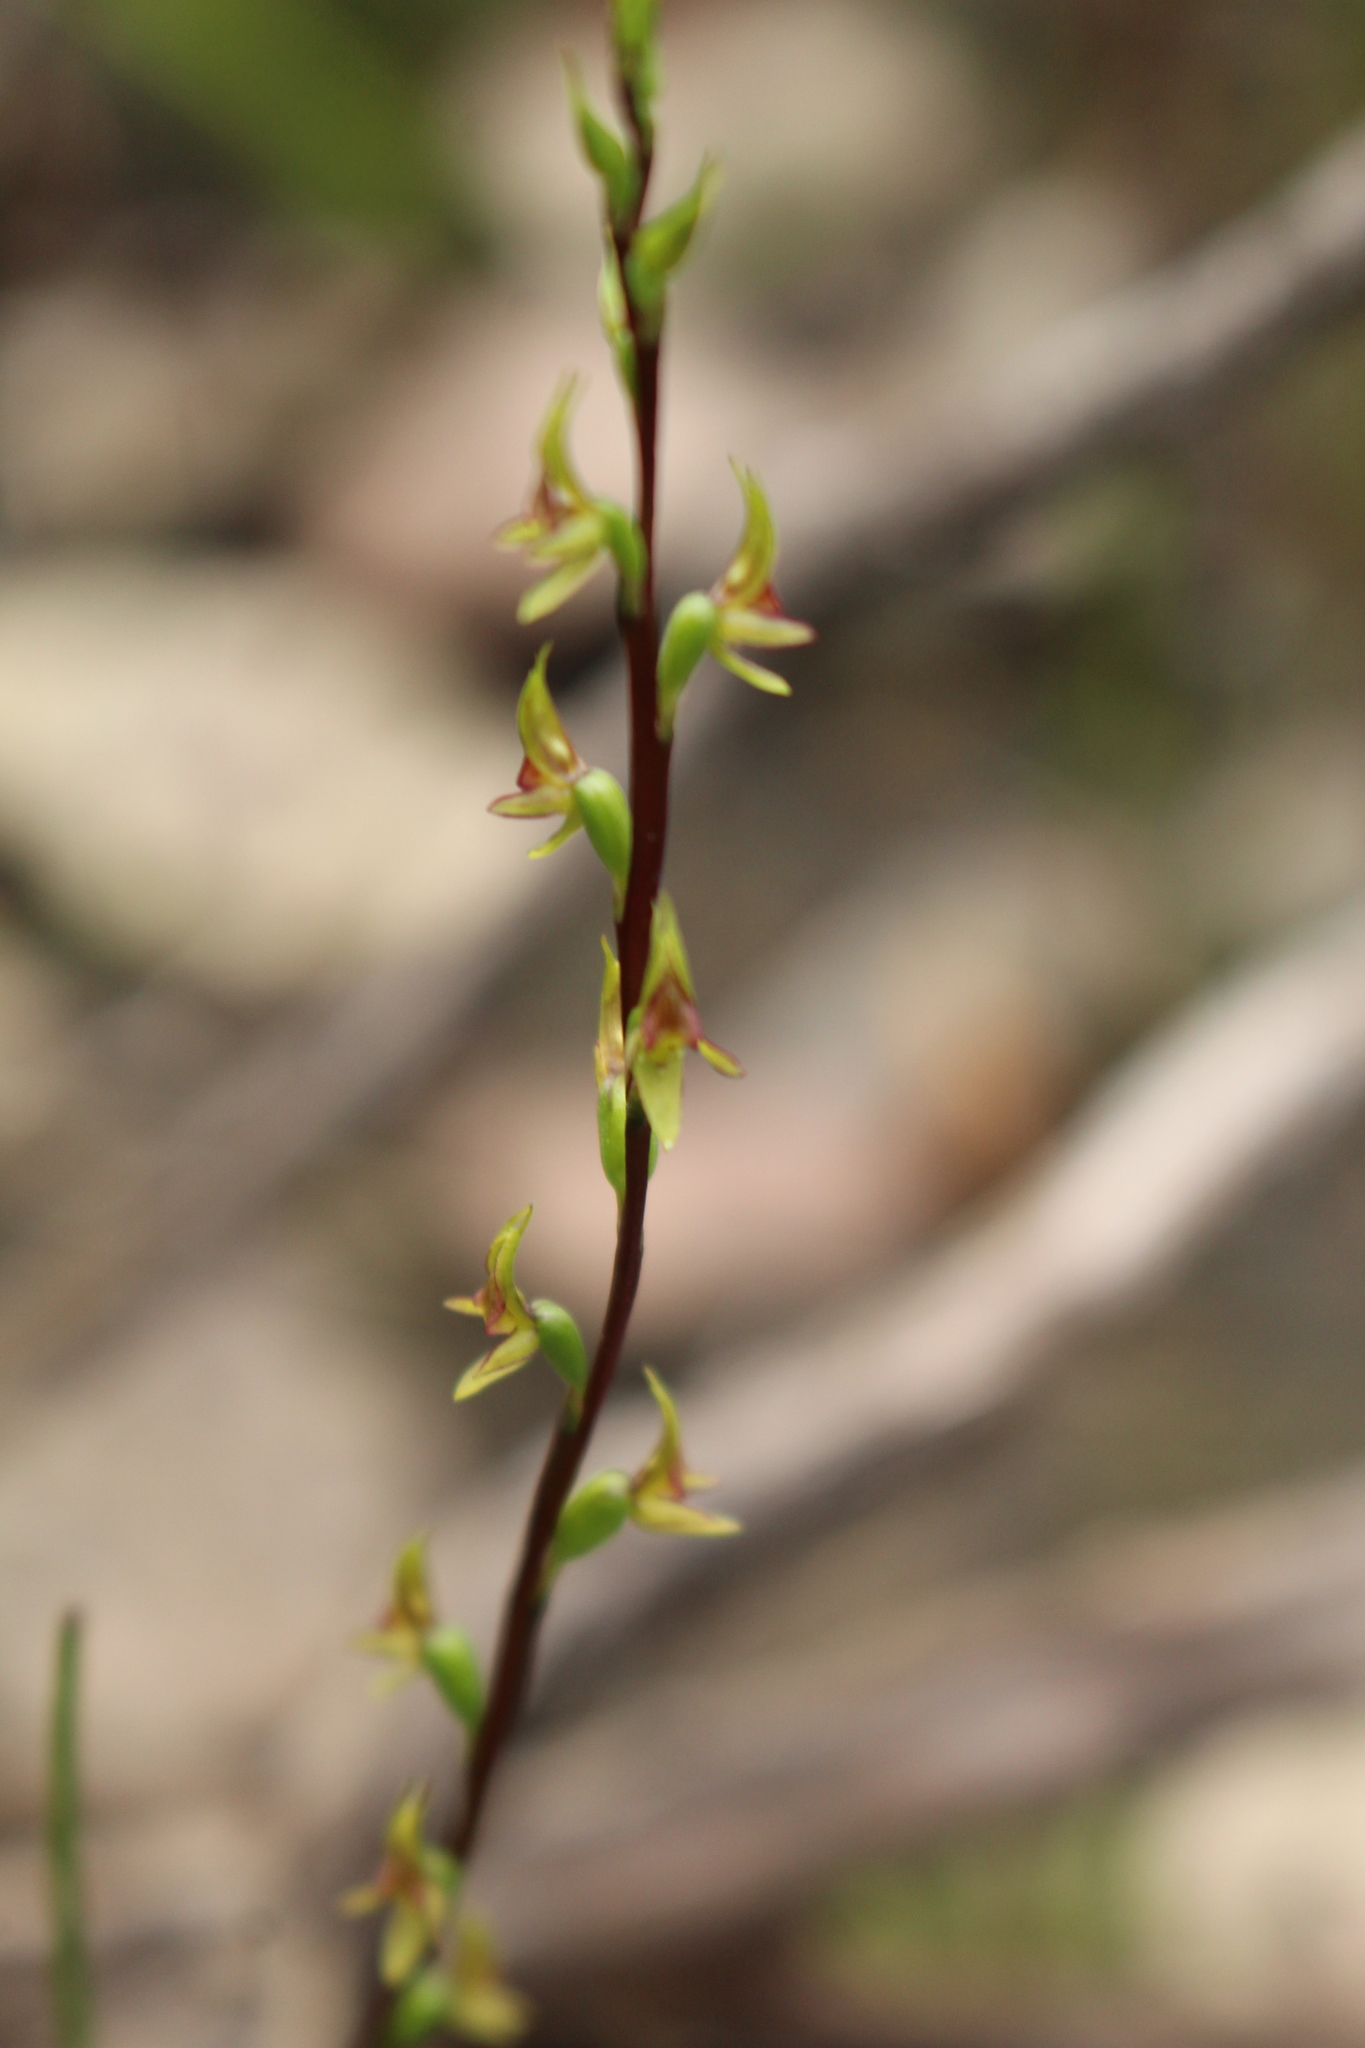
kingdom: Plantae
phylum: Tracheophyta
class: Liliopsida
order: Asparagales
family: Orchidaceae
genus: Prasophyllum
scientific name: Prasophyllum macrostachyum
